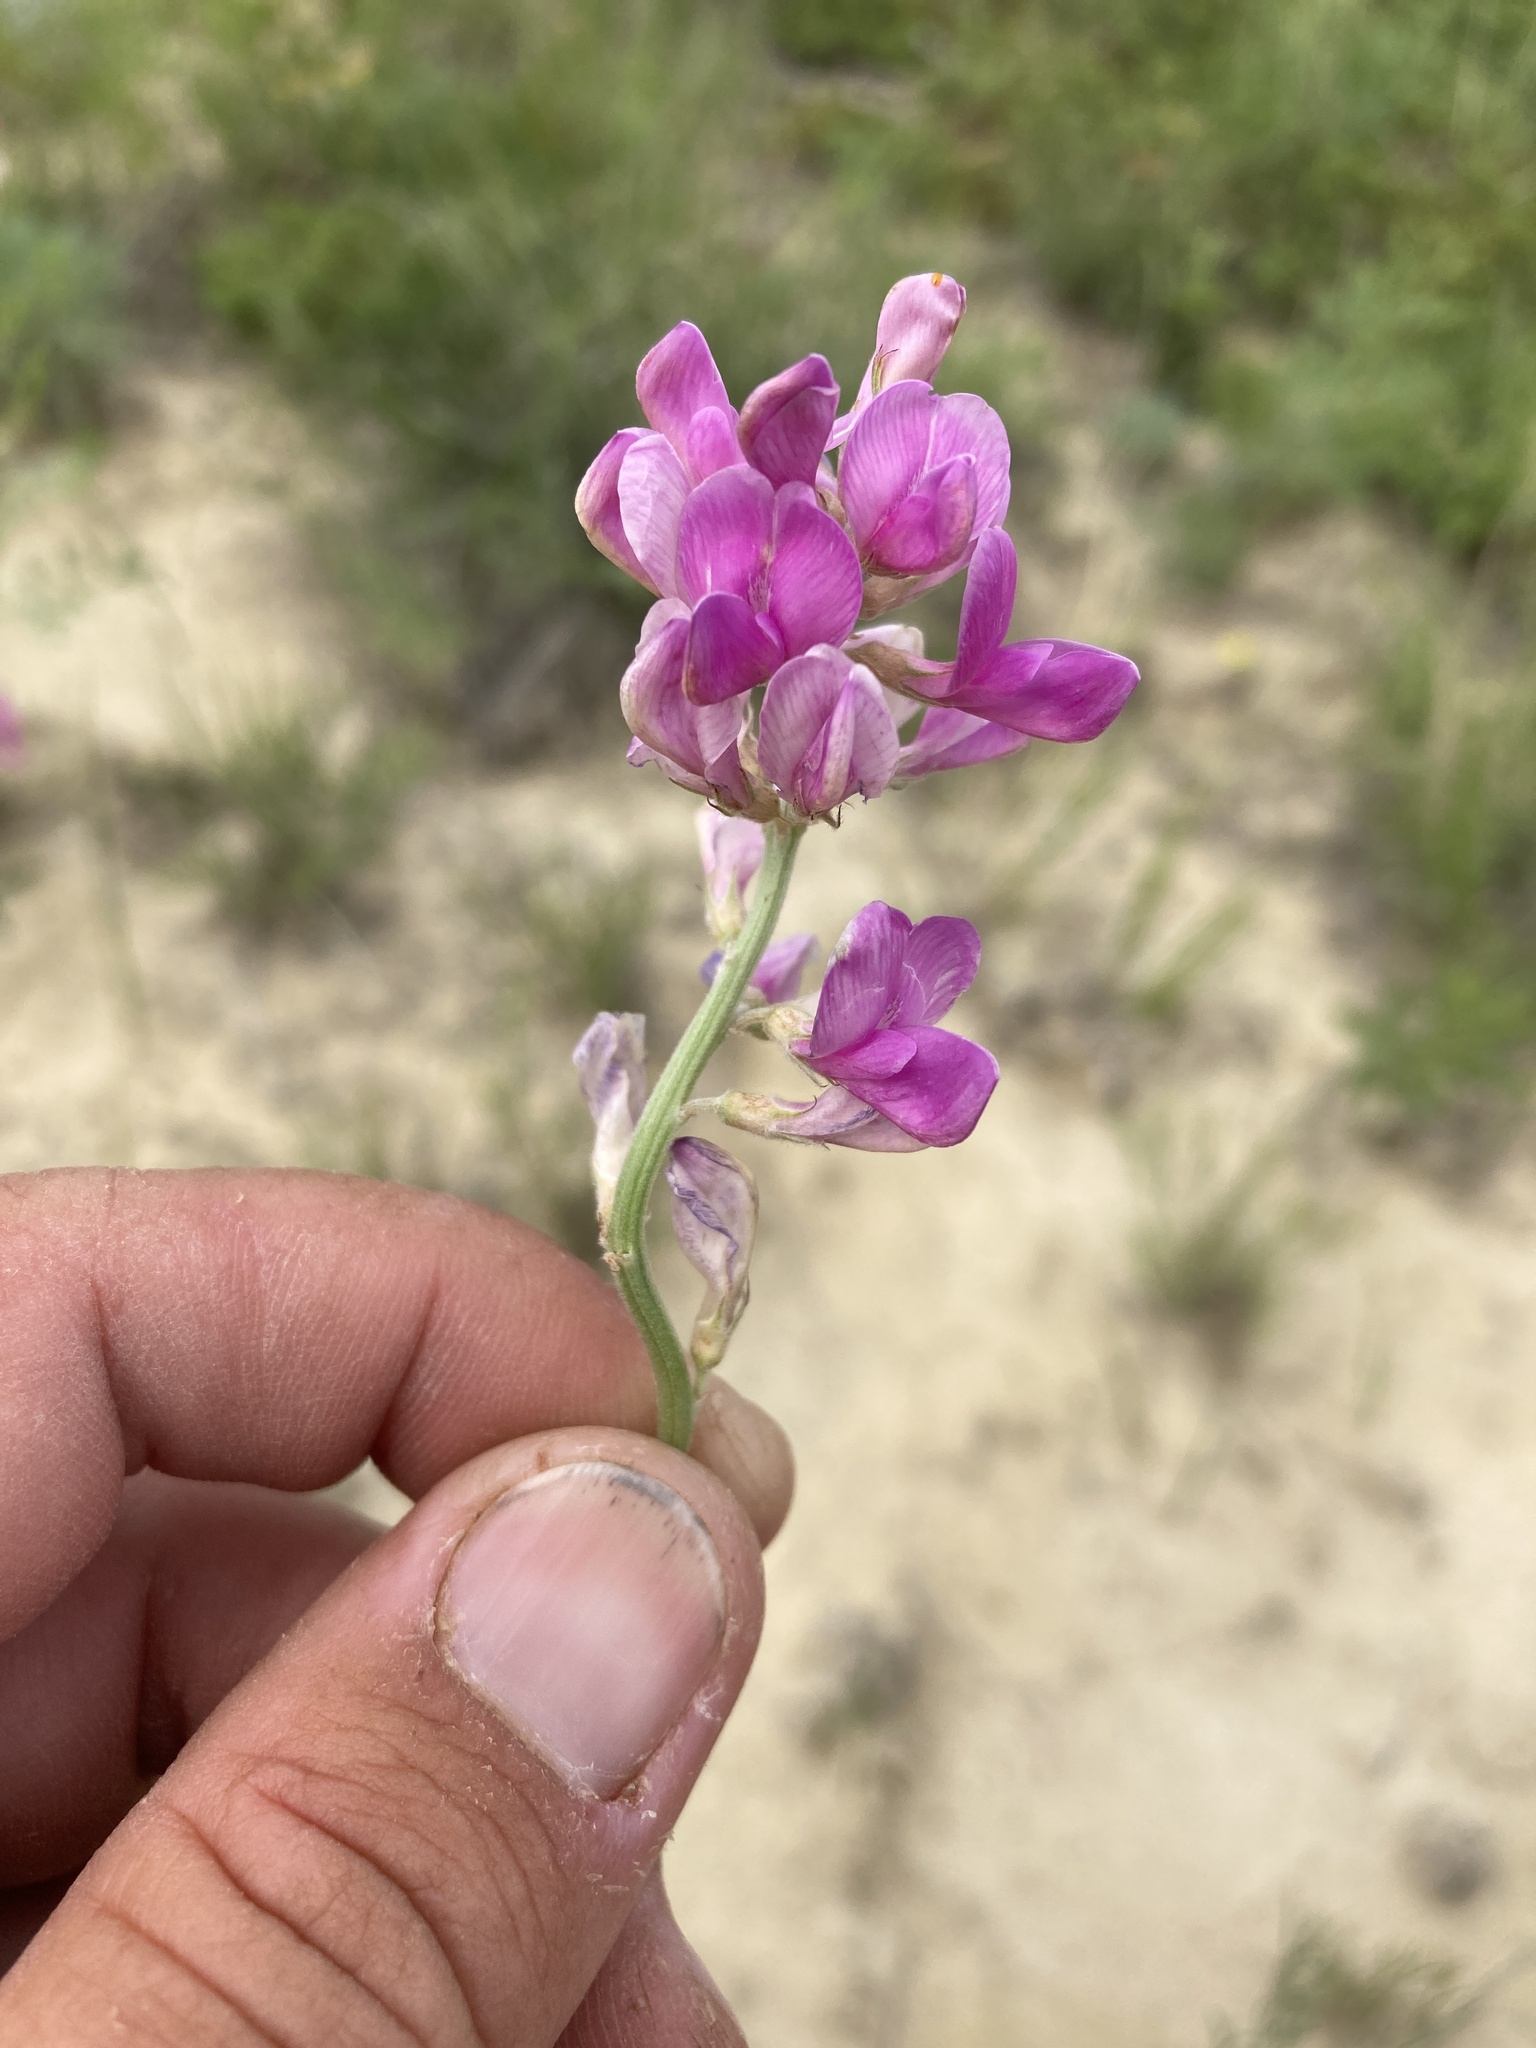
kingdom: Plantae
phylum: Tracheophyta
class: Magnoliopsida
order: Fabales
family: Fabaceae
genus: Hedysarum
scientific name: Hedysarum boreale
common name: Northern sweet-vetch
